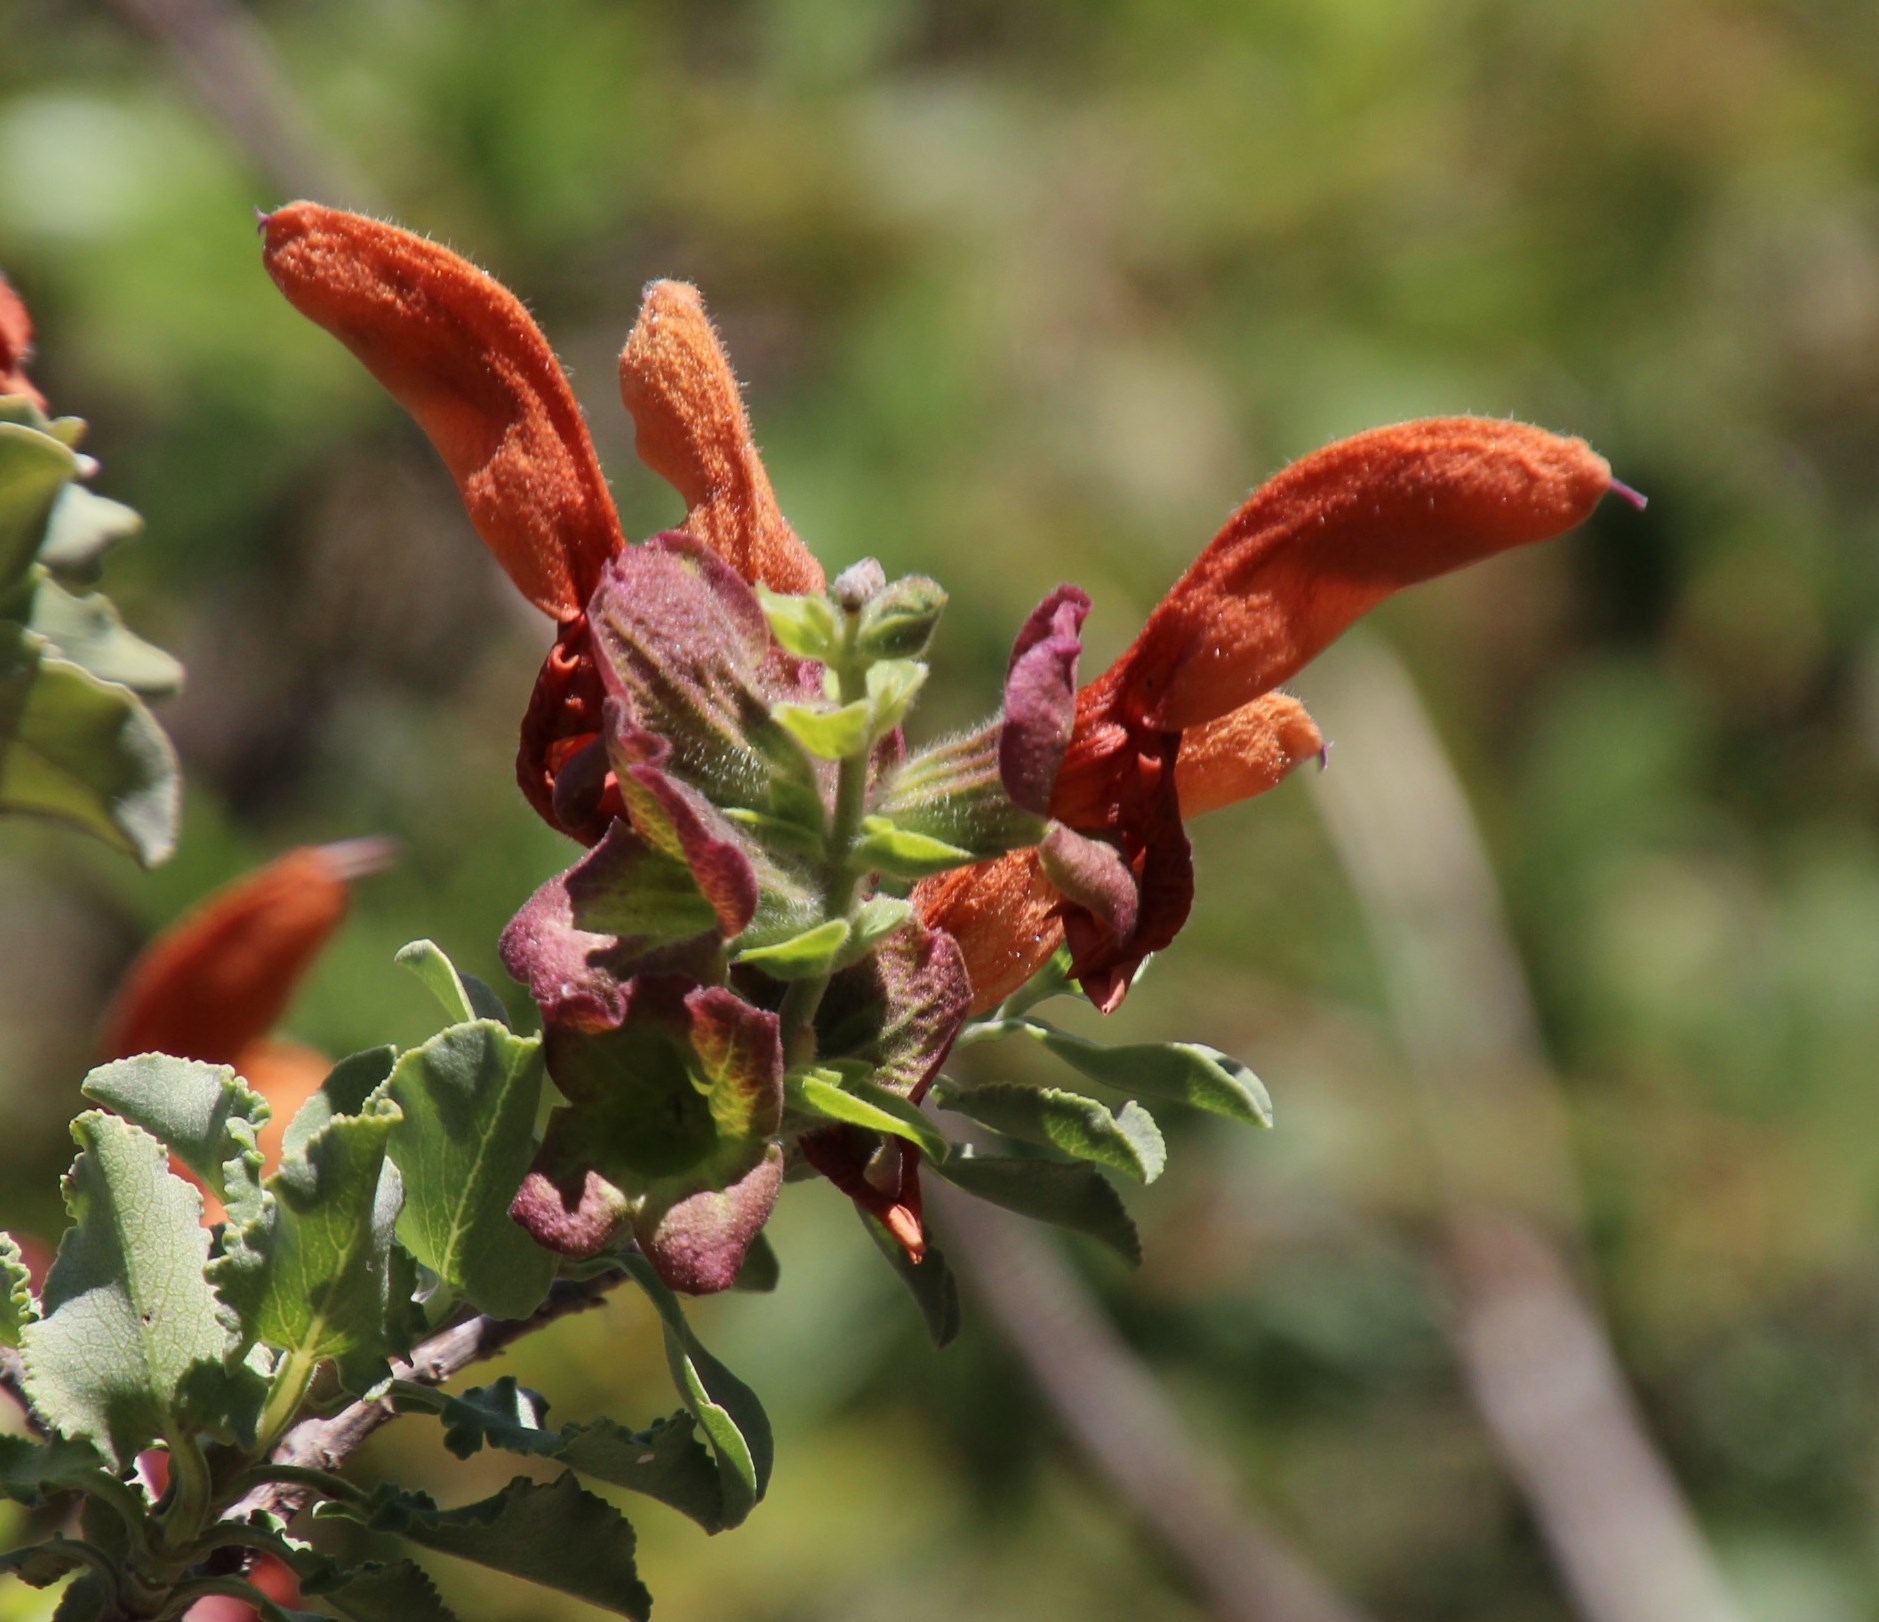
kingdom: Plantae
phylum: Tracheophyta
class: Magnoliopsida
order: Lamiales
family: Lamiaceae
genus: Salvia
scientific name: Salvia aurea
